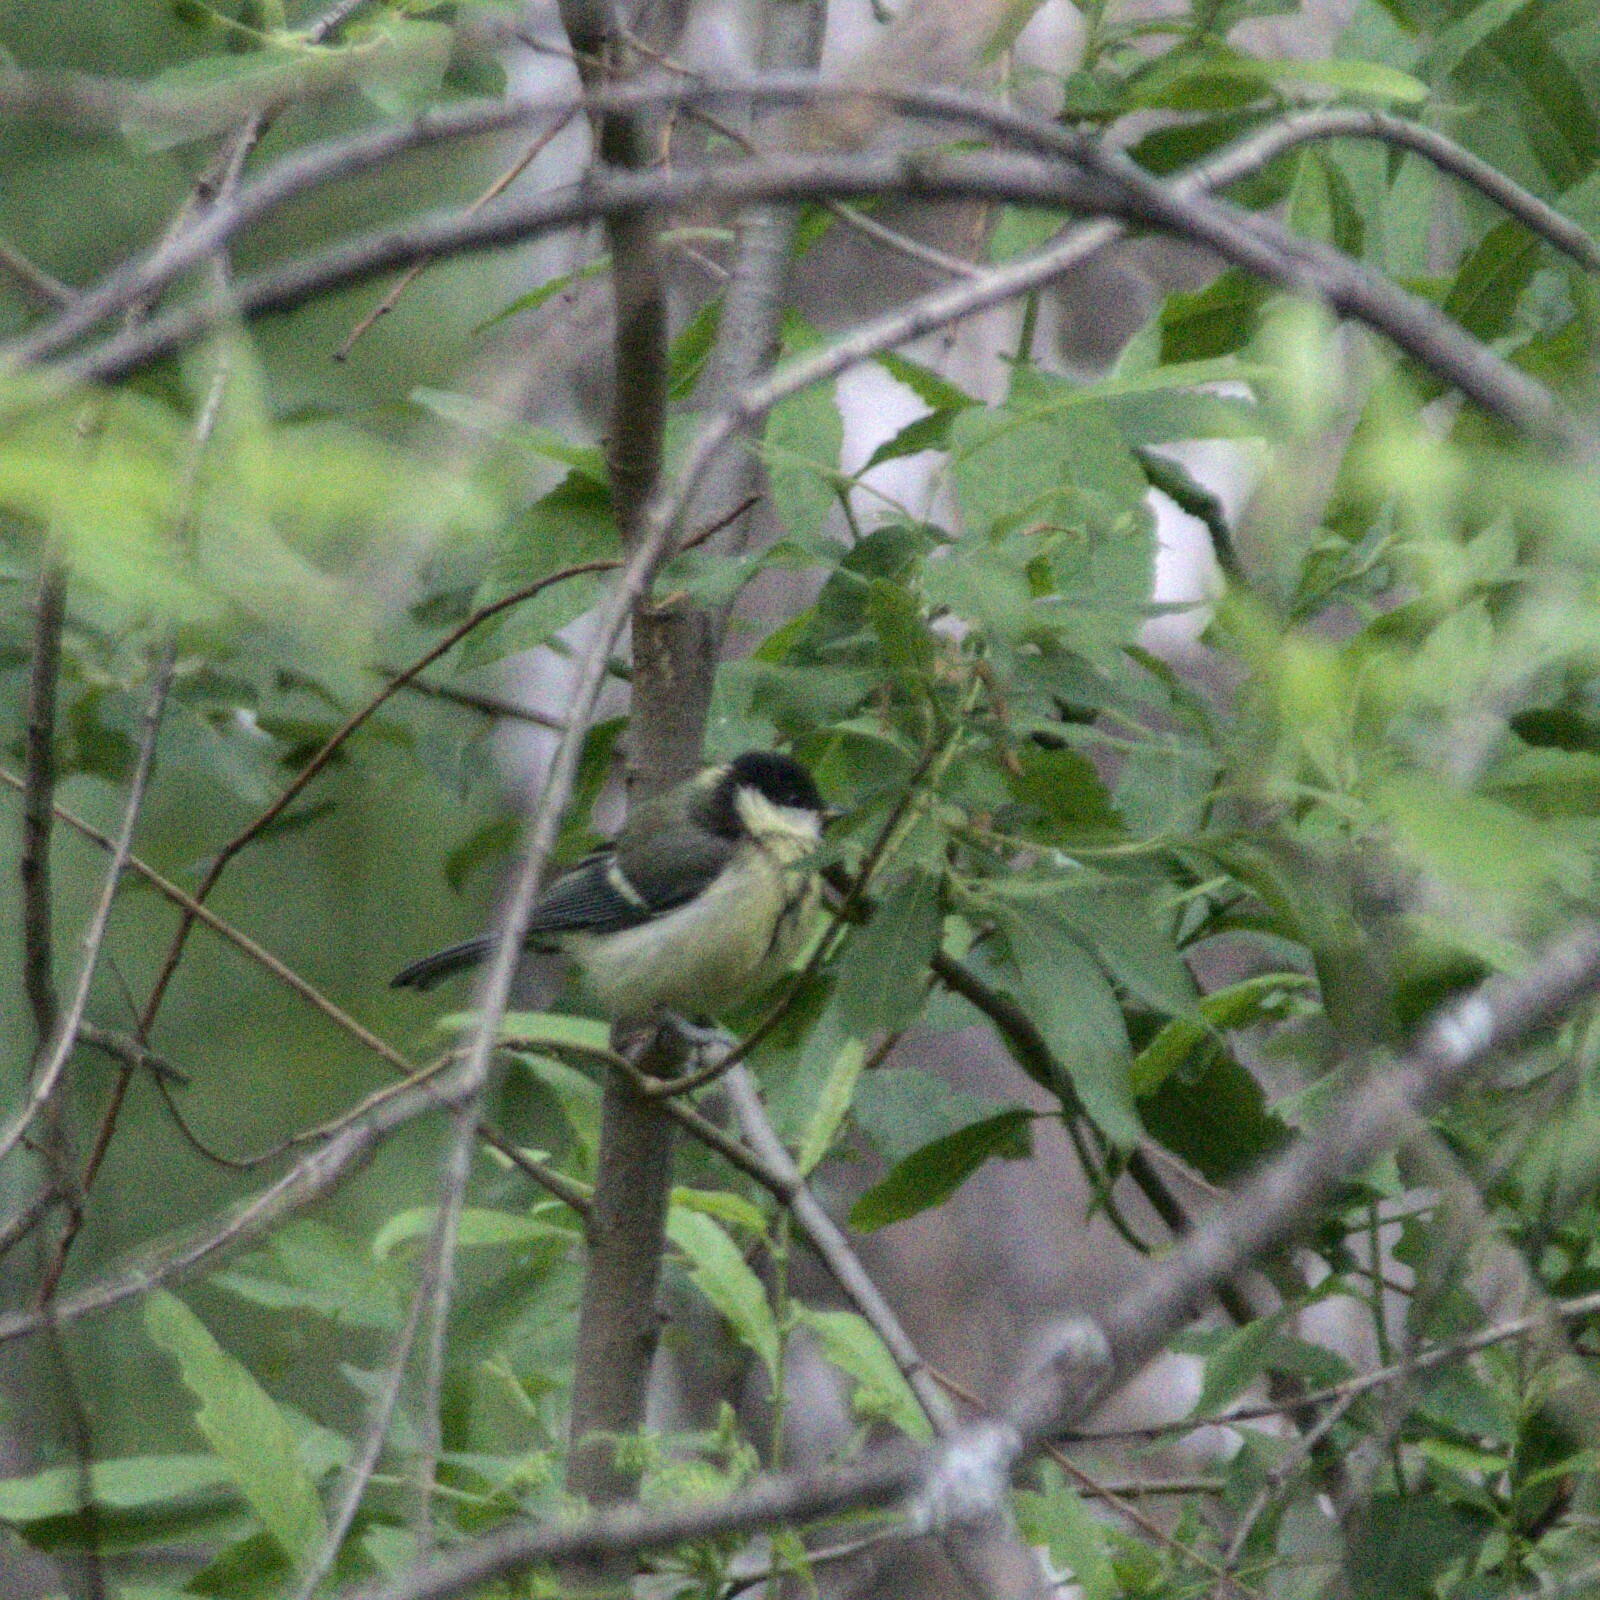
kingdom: Animalia
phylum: Chordata
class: Aves
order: Passeriformes
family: Paridae
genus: Parus
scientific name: Parus major
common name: Great tit
